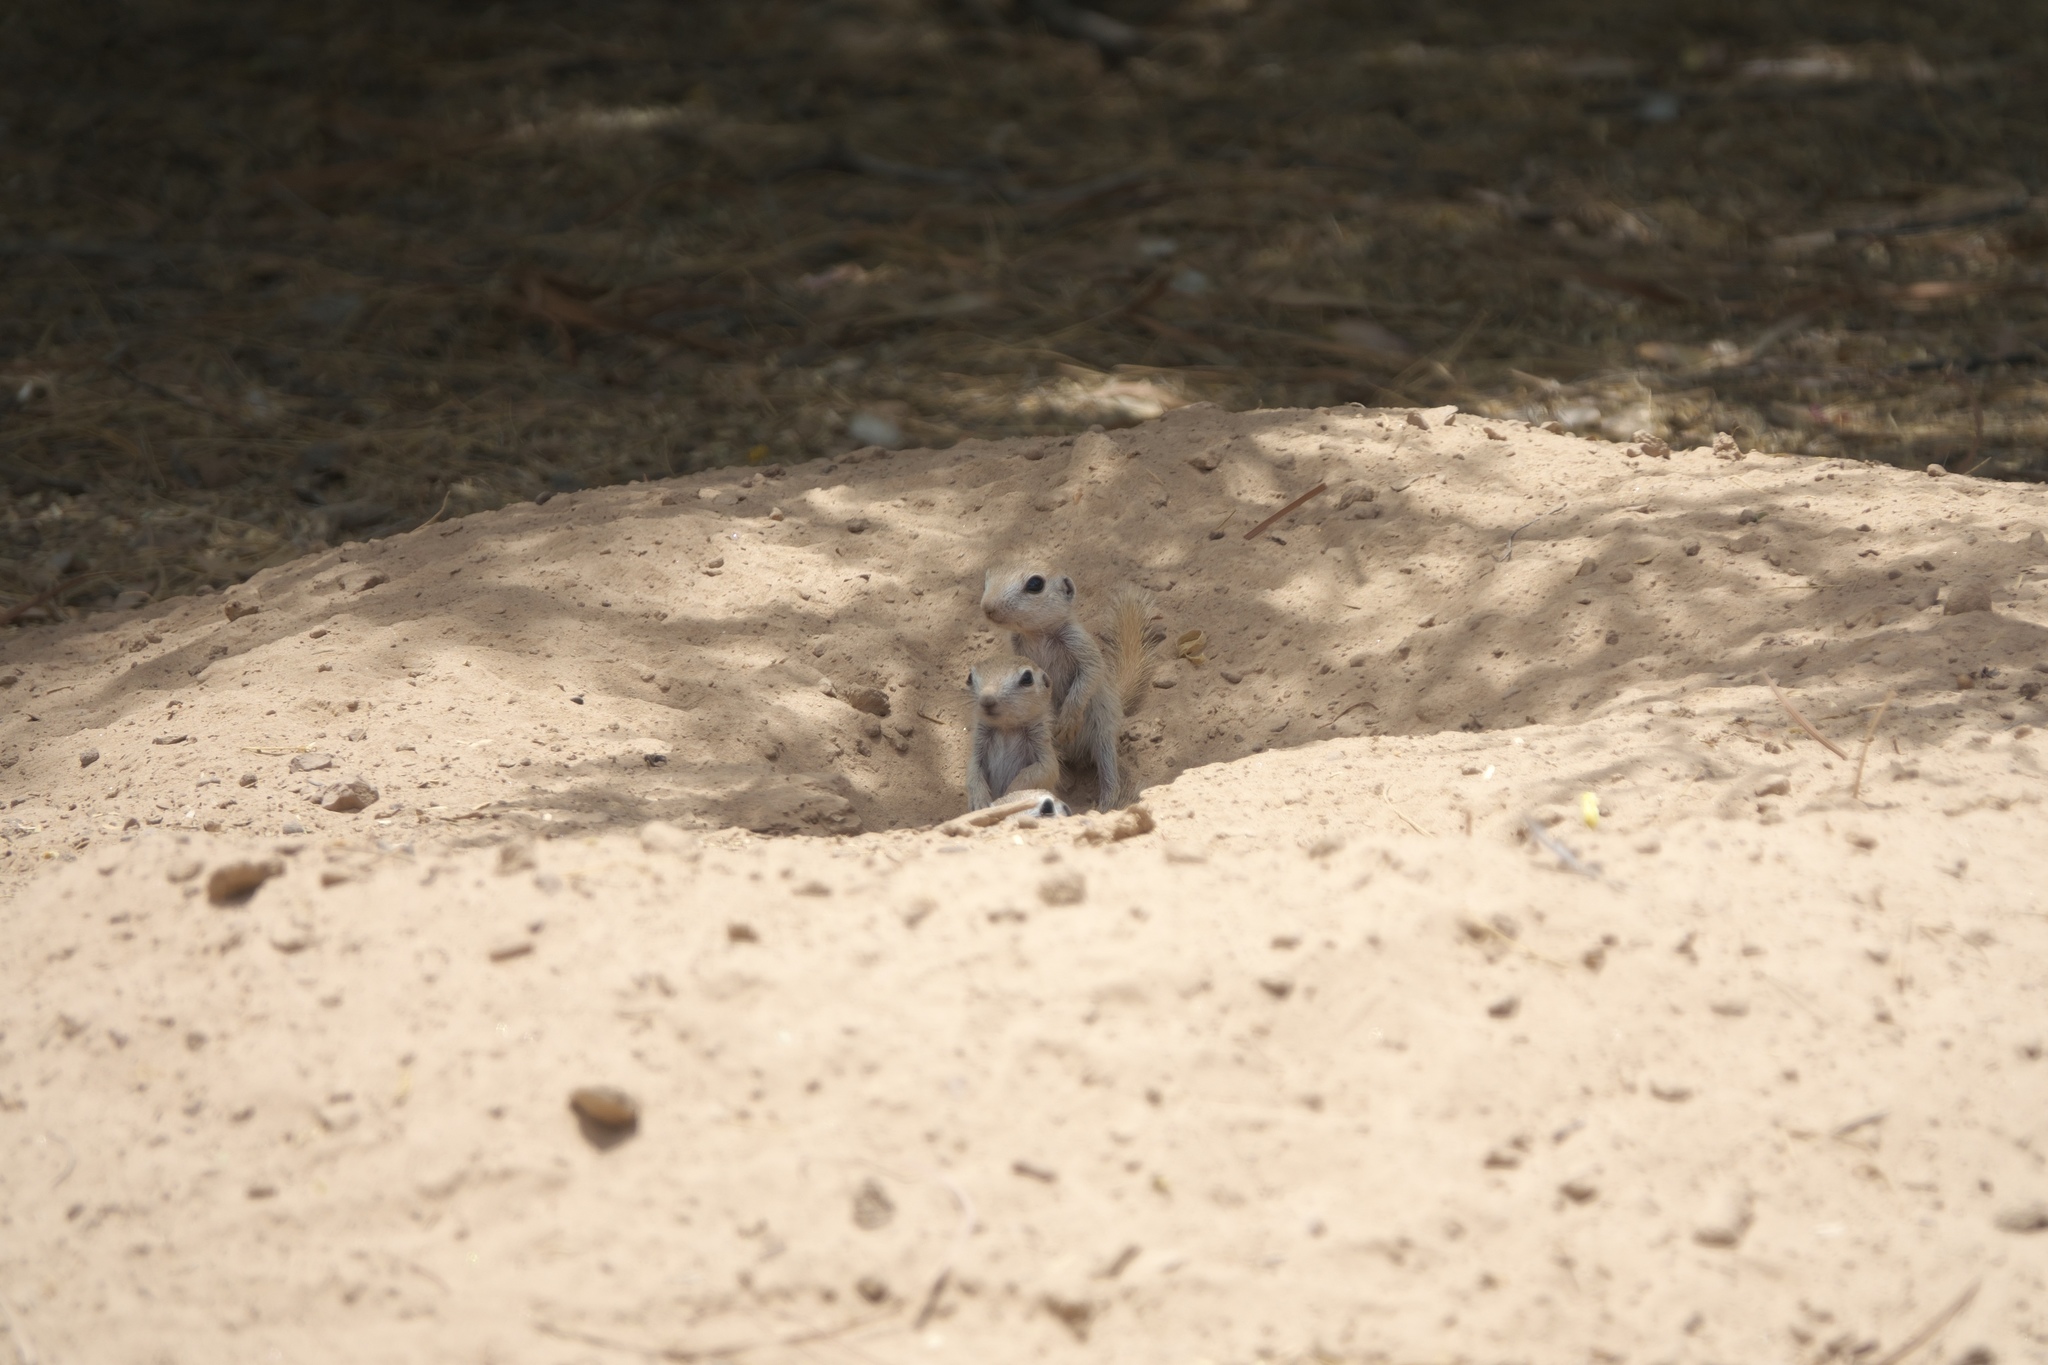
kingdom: Animalia
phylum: Chordata
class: Mammalia
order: Rodentia
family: Sciuridae
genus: Xerospermophilus
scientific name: Xerospermophilus tereticaudus
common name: Round-tailed ground squirrel
